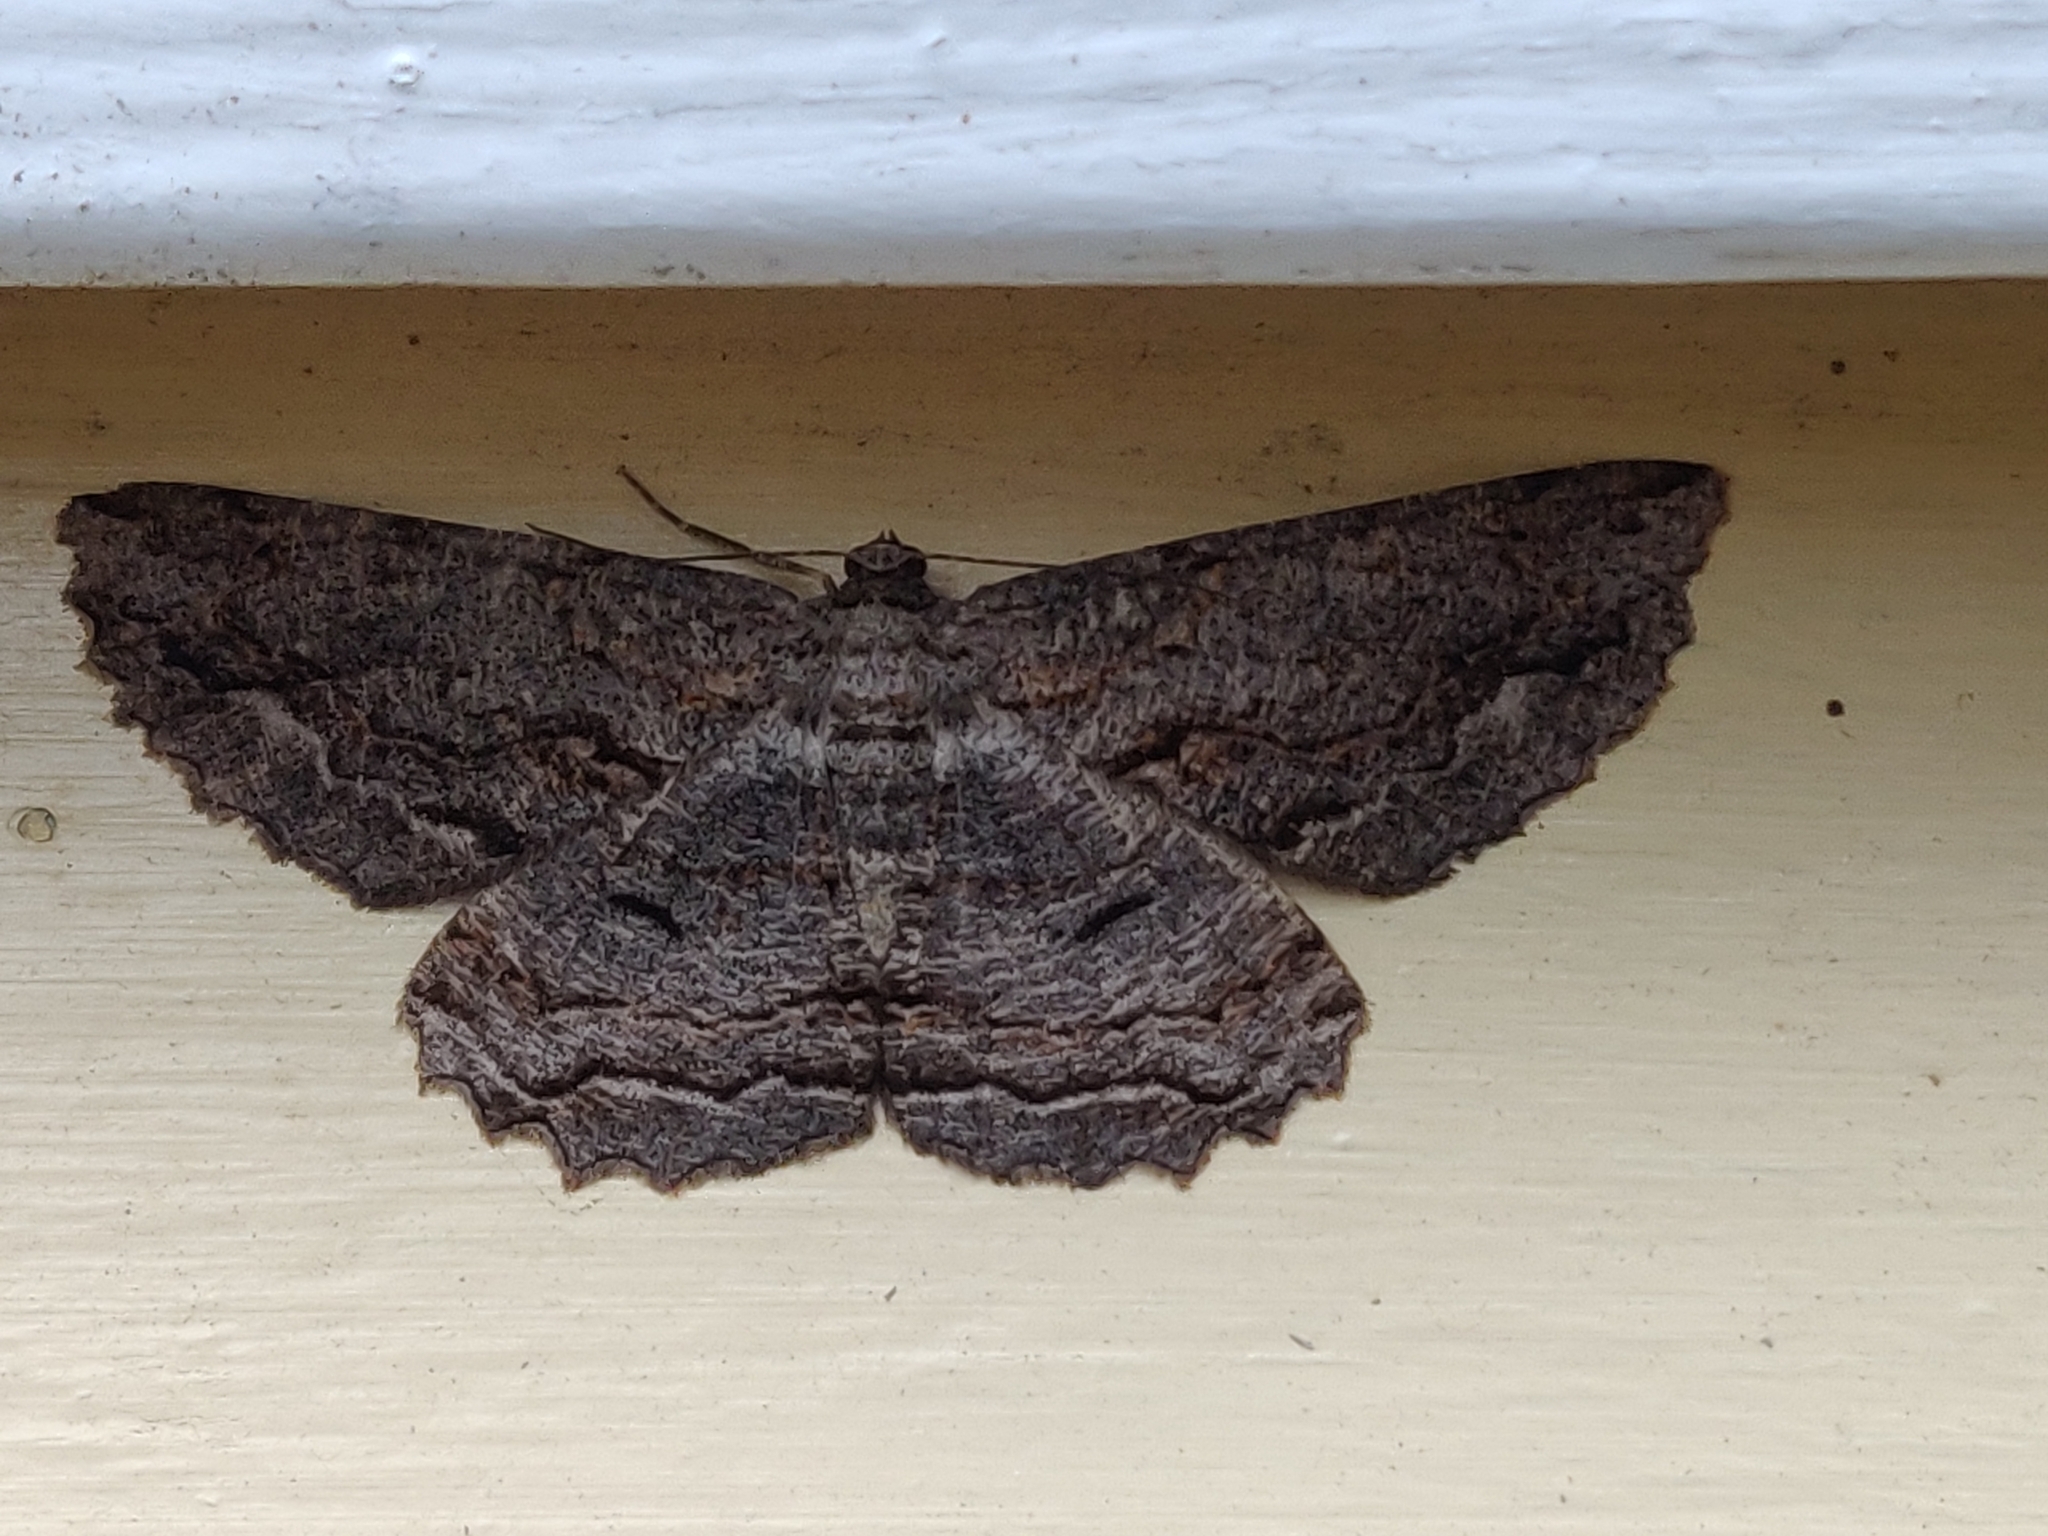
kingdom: Animalia
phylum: Arthropoda
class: Insecta
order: Lepidoptera
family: Geometridae
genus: Scioglyptis
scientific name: Scioglyptis lyciaria
